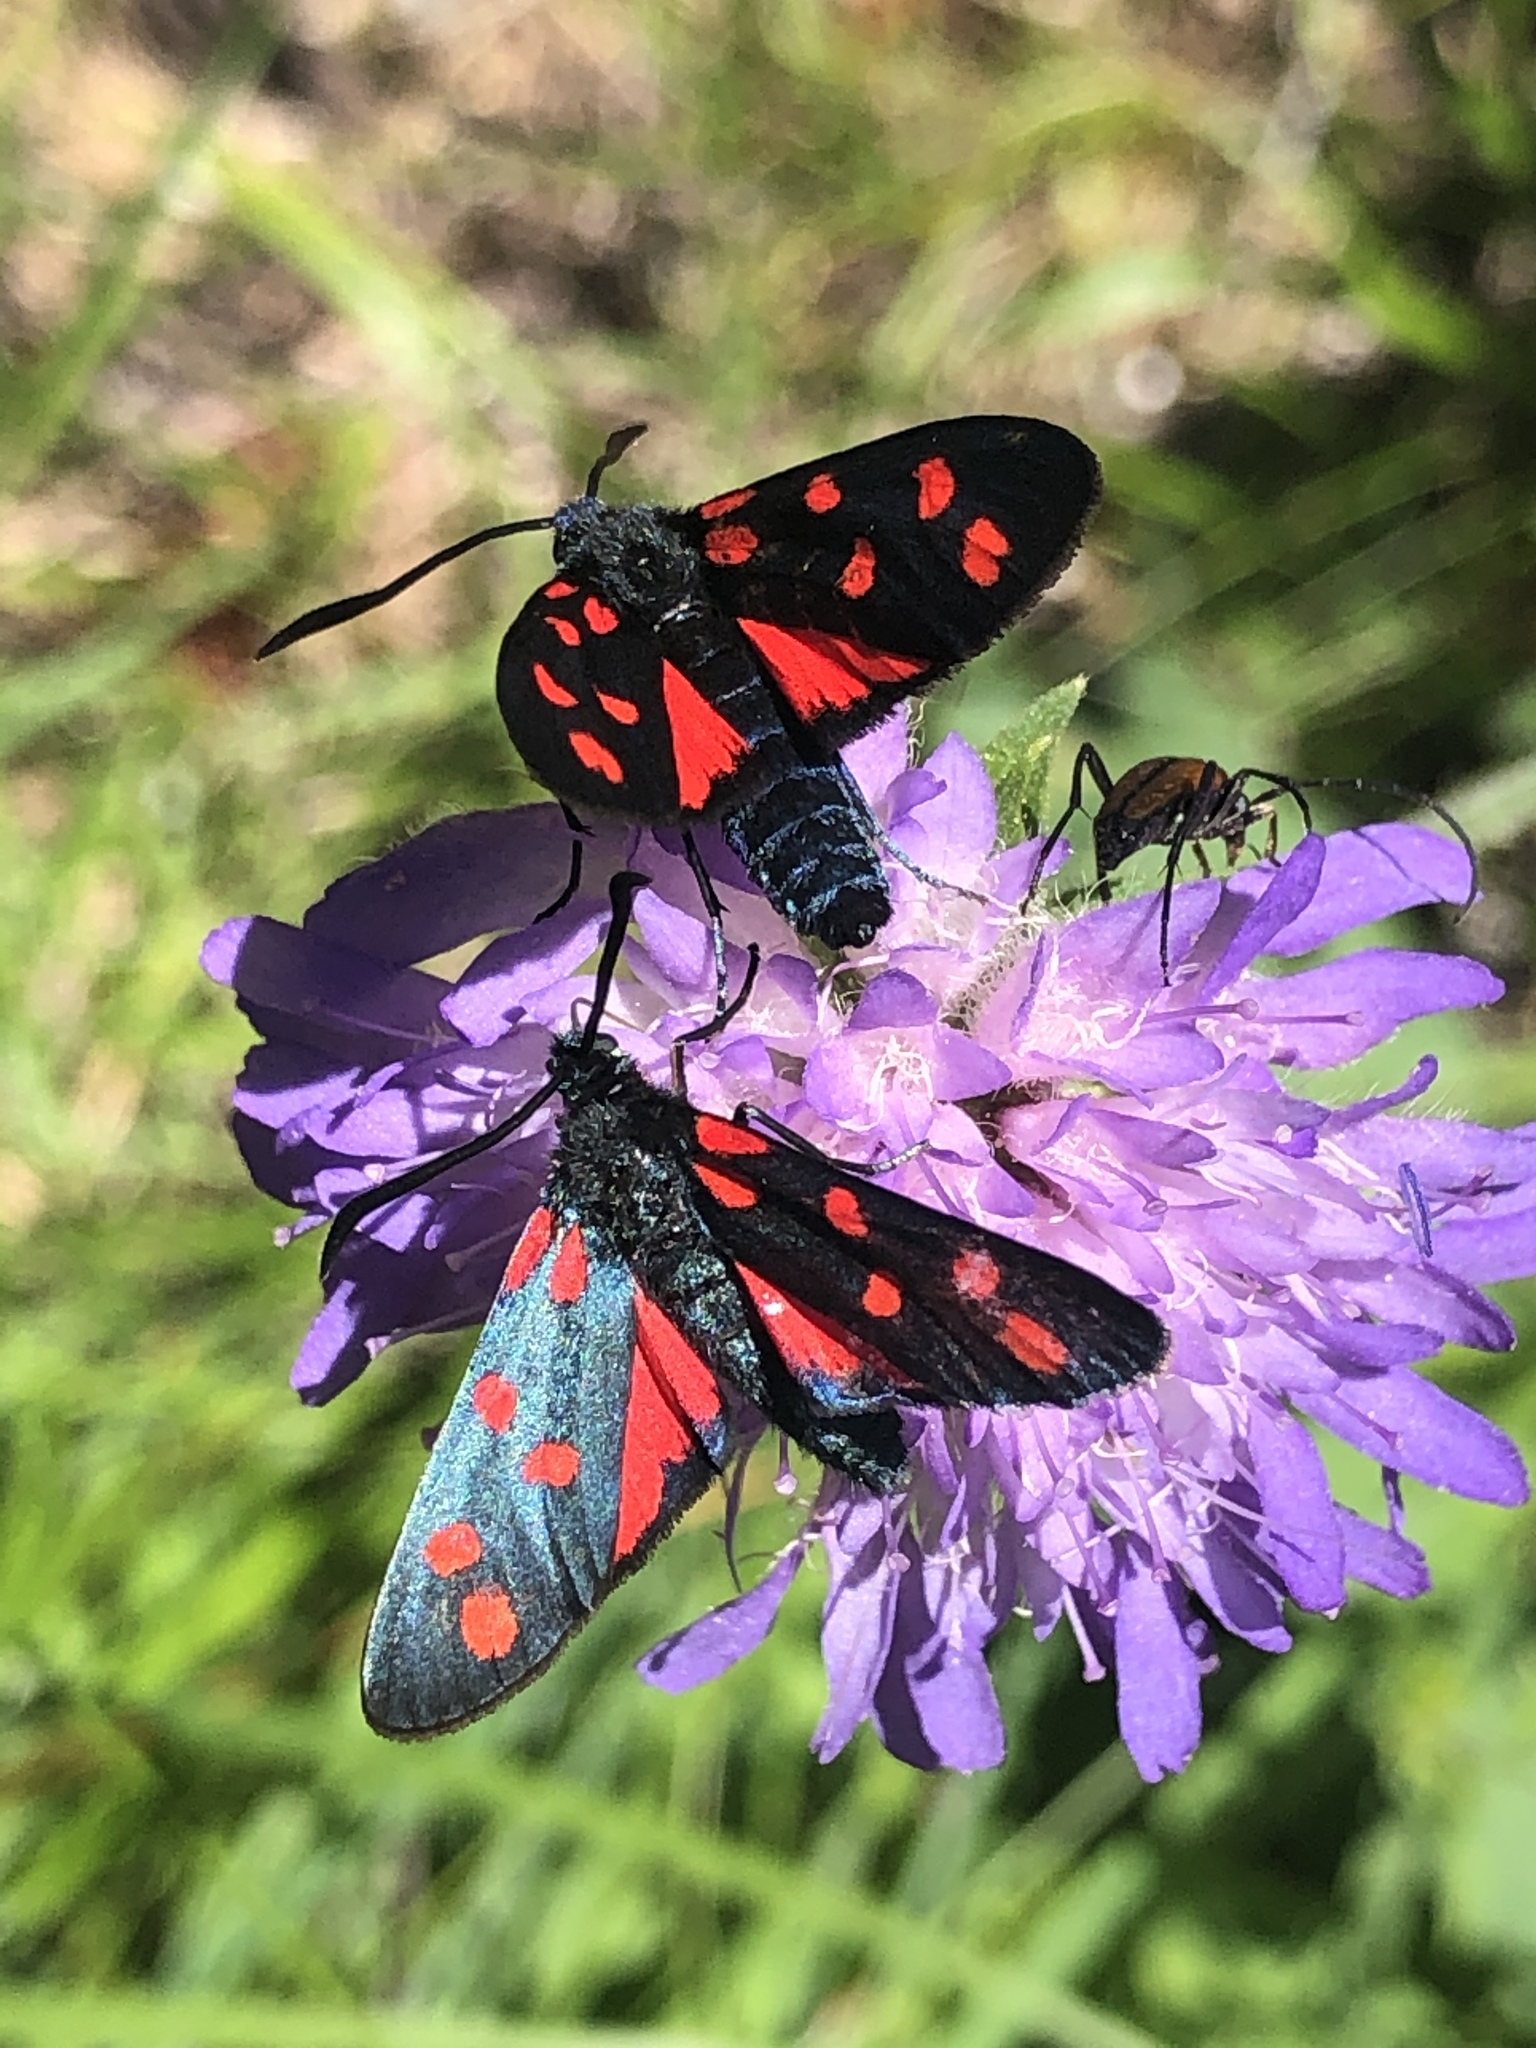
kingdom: Animalia
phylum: Arthropoda
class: Insecta
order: Lepidoptera
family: Zygaenidae
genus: Zygaena
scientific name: Zygaena transalpina
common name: Southern six spot burnet
